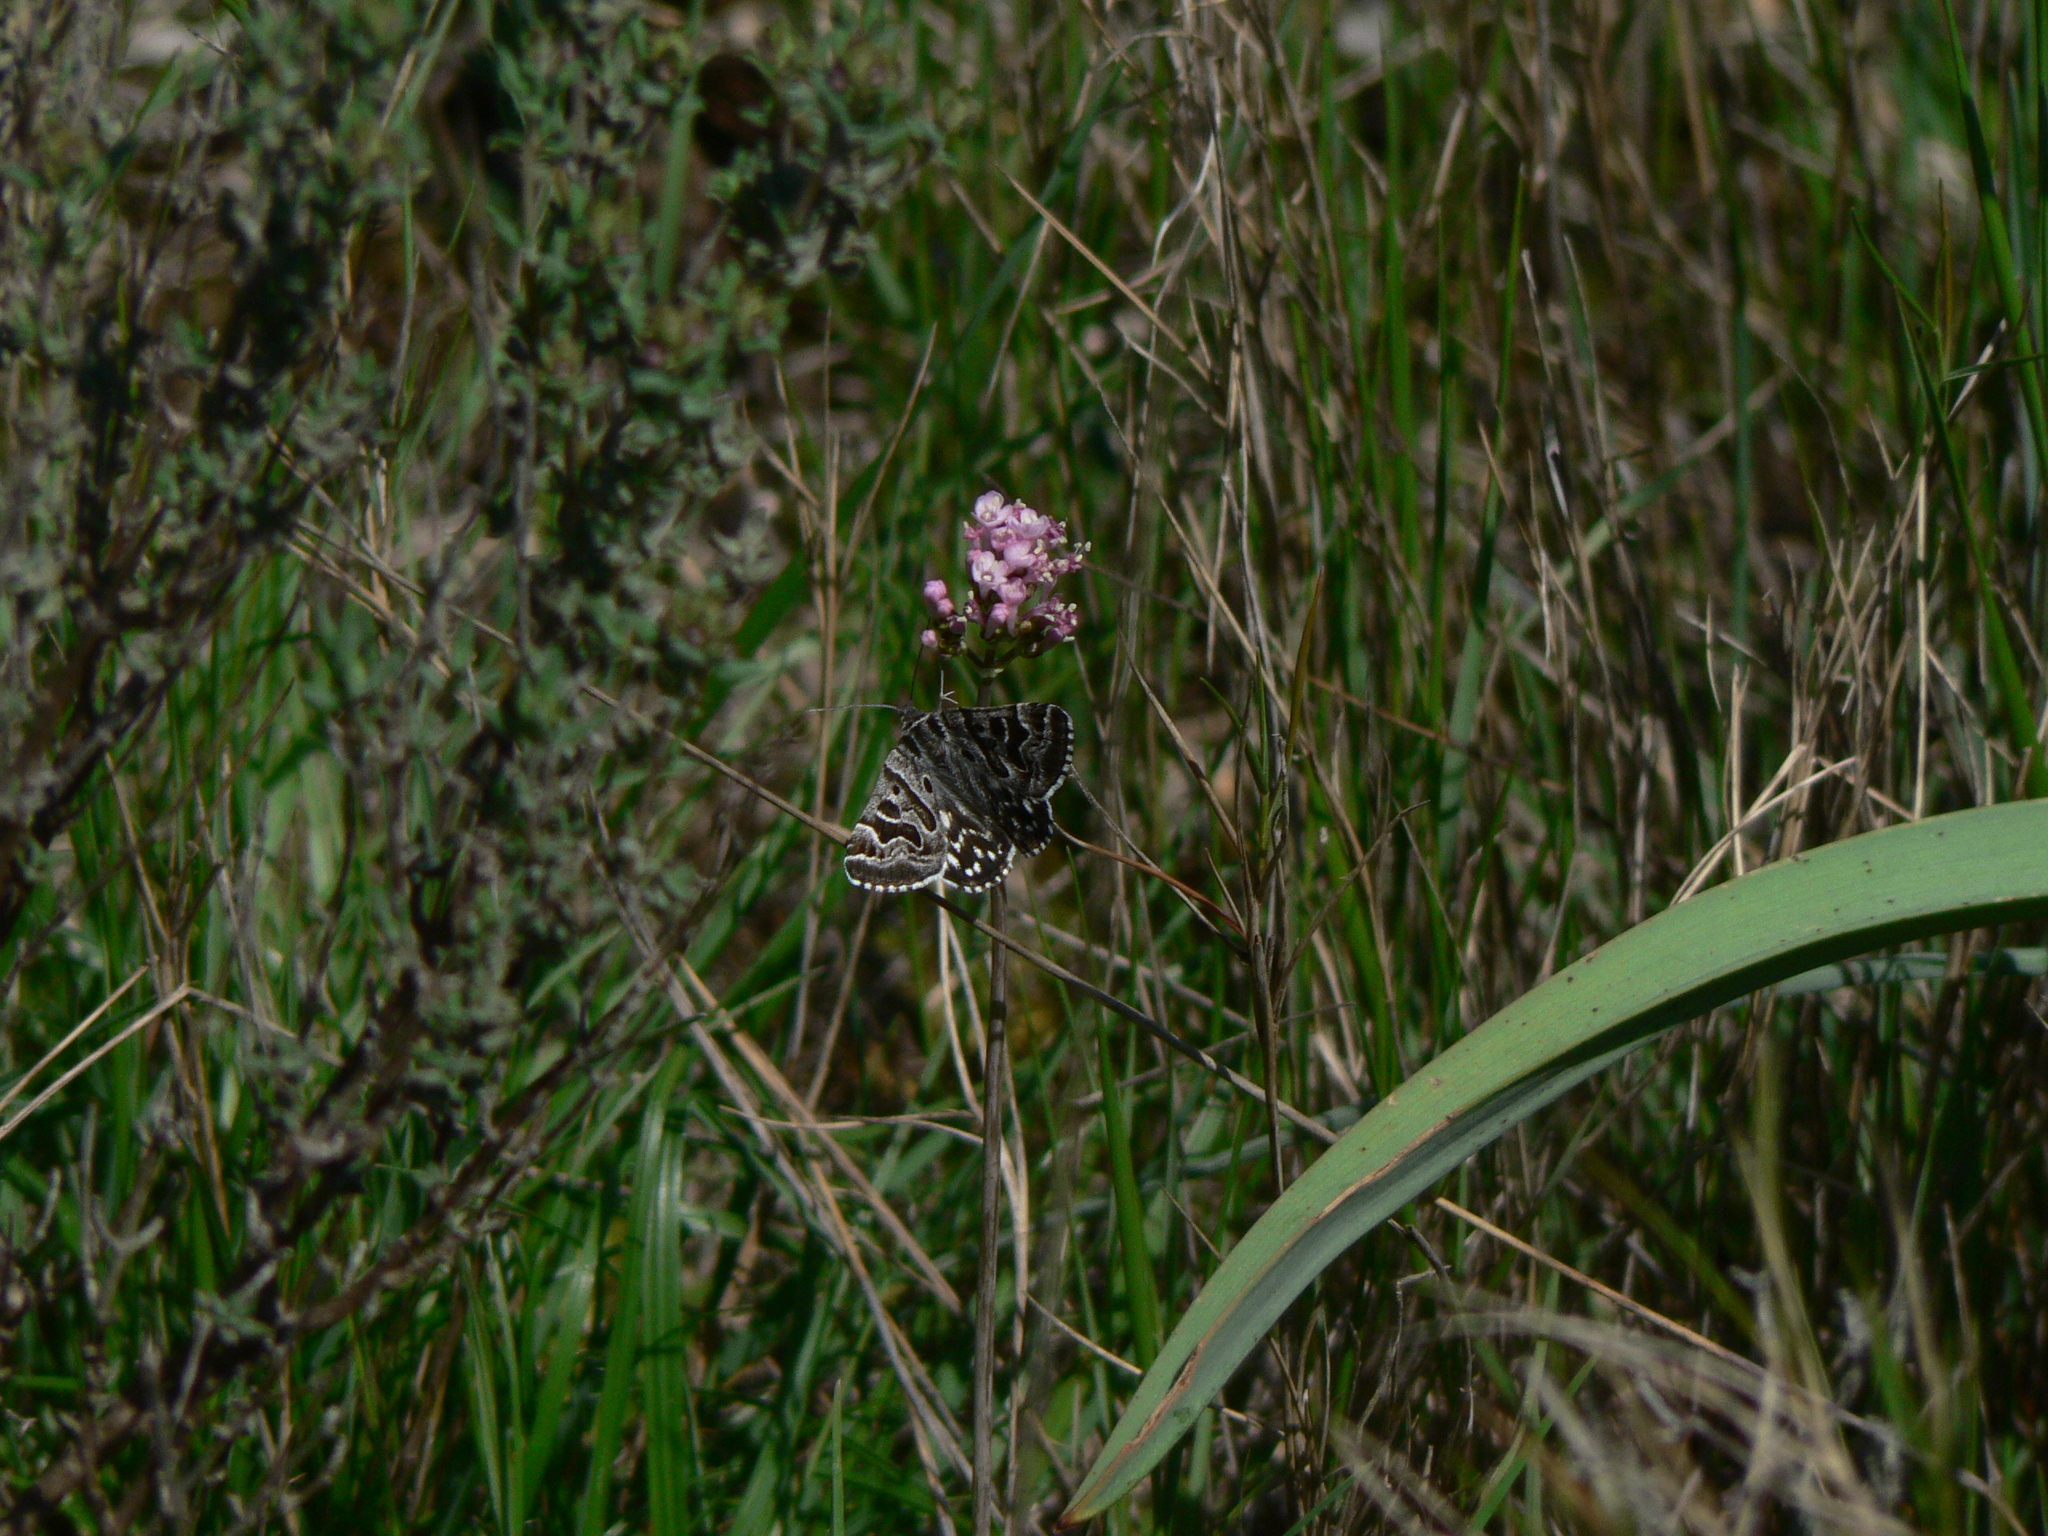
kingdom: Animalia
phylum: Arthropoda
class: Insecta
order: Lepidoptera
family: Erebidae
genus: Callistege
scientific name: Callistege mi
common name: Mother shipton
